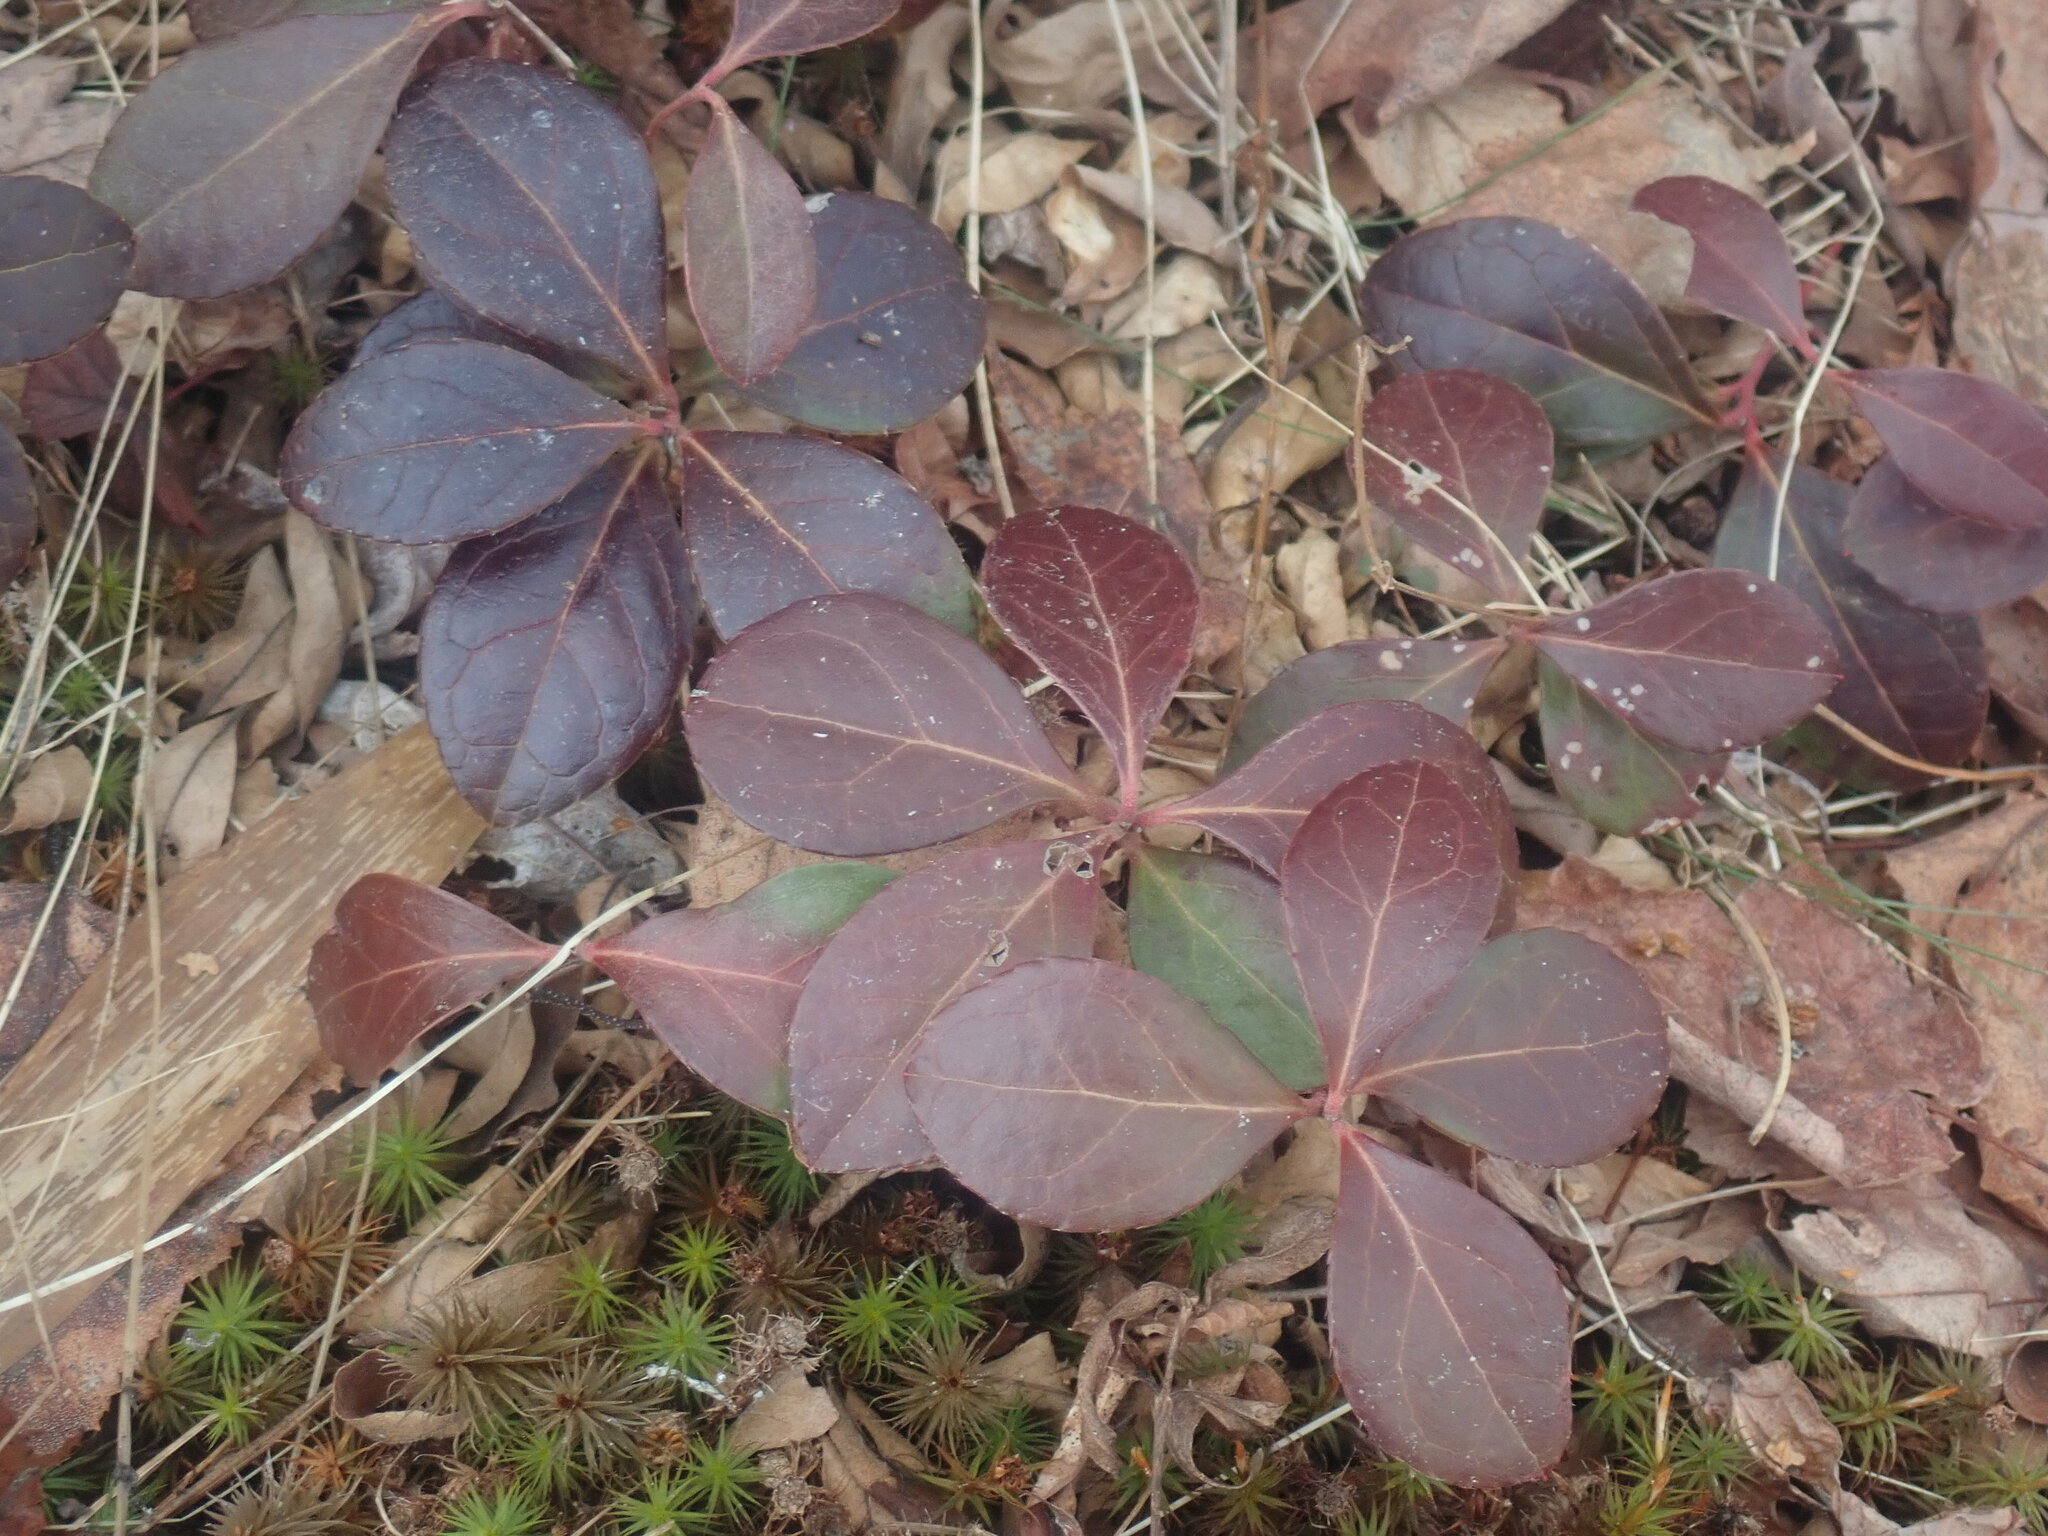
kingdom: Plantae
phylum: Tracheophyta
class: Magnoliopsida
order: Ericales
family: Ericaceae
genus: Gaultheria
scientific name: Gaultheria procumbens
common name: Checkerberry
